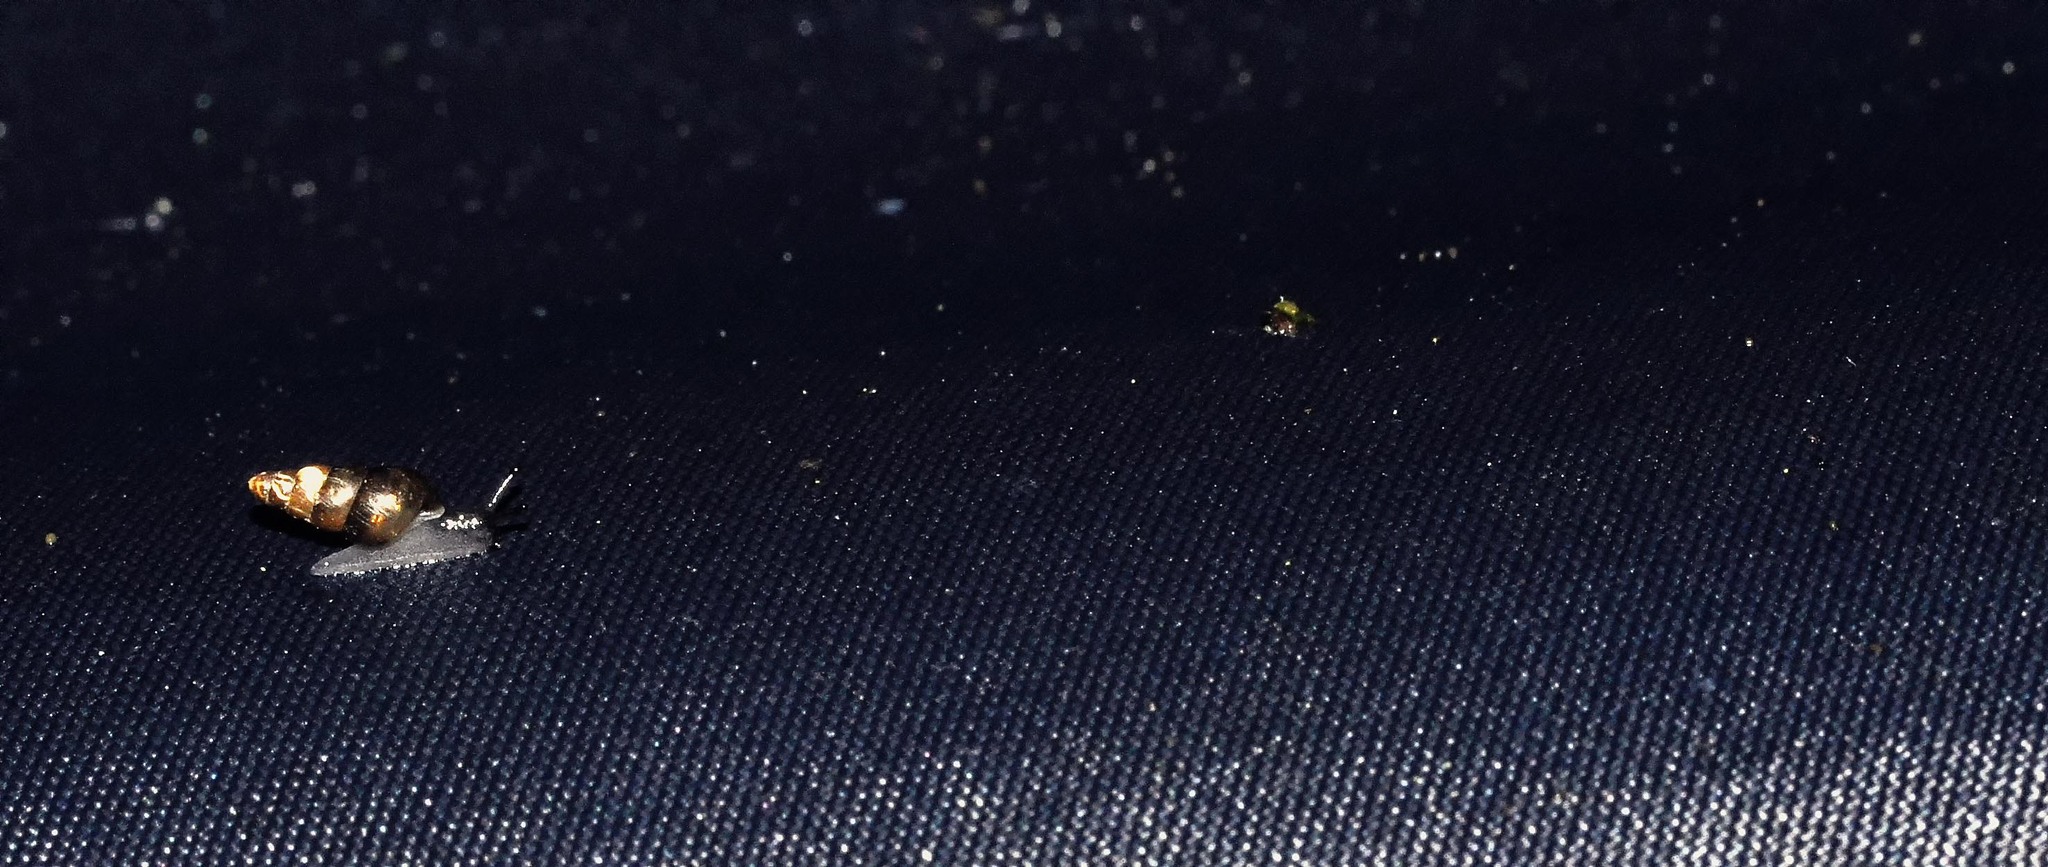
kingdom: Animalia
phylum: Mollusca
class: Gastropoda
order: Stylommatophora
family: Clausiliidae
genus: Cochlodina
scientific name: Cochlodina laminata
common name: Plaited door snail
